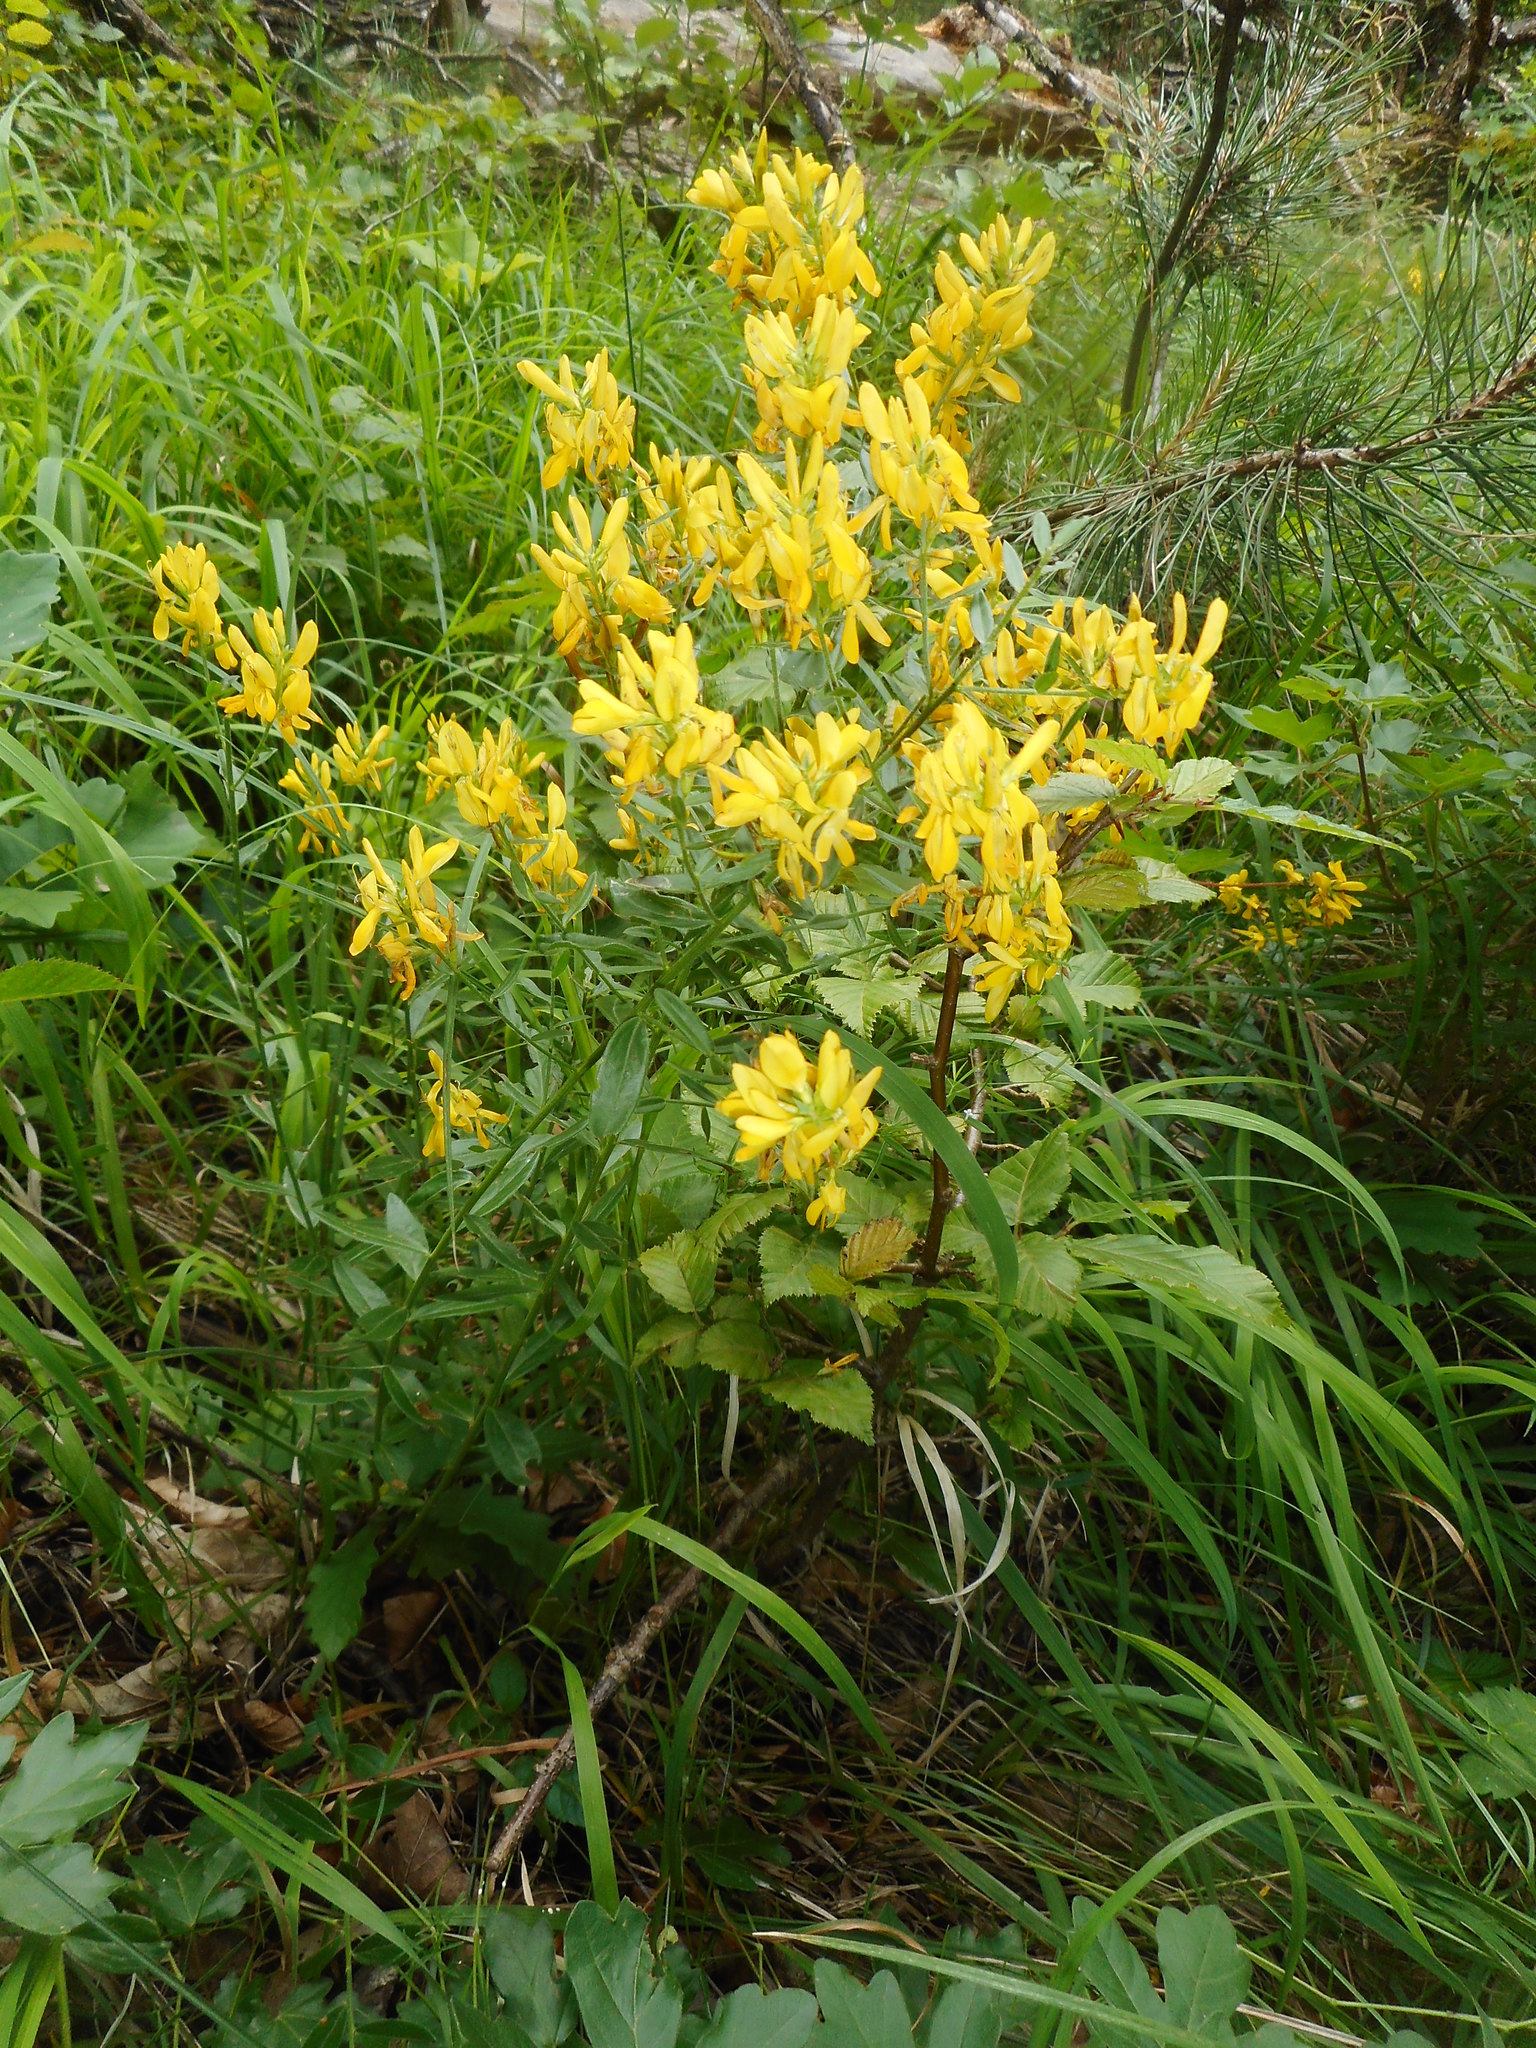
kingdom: Plantae
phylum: Tracheophyta
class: Magnoliopsida
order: Fabales
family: Fabaceae
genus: Genista
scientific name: Genista tinctoria
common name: Dyer's greenweed
